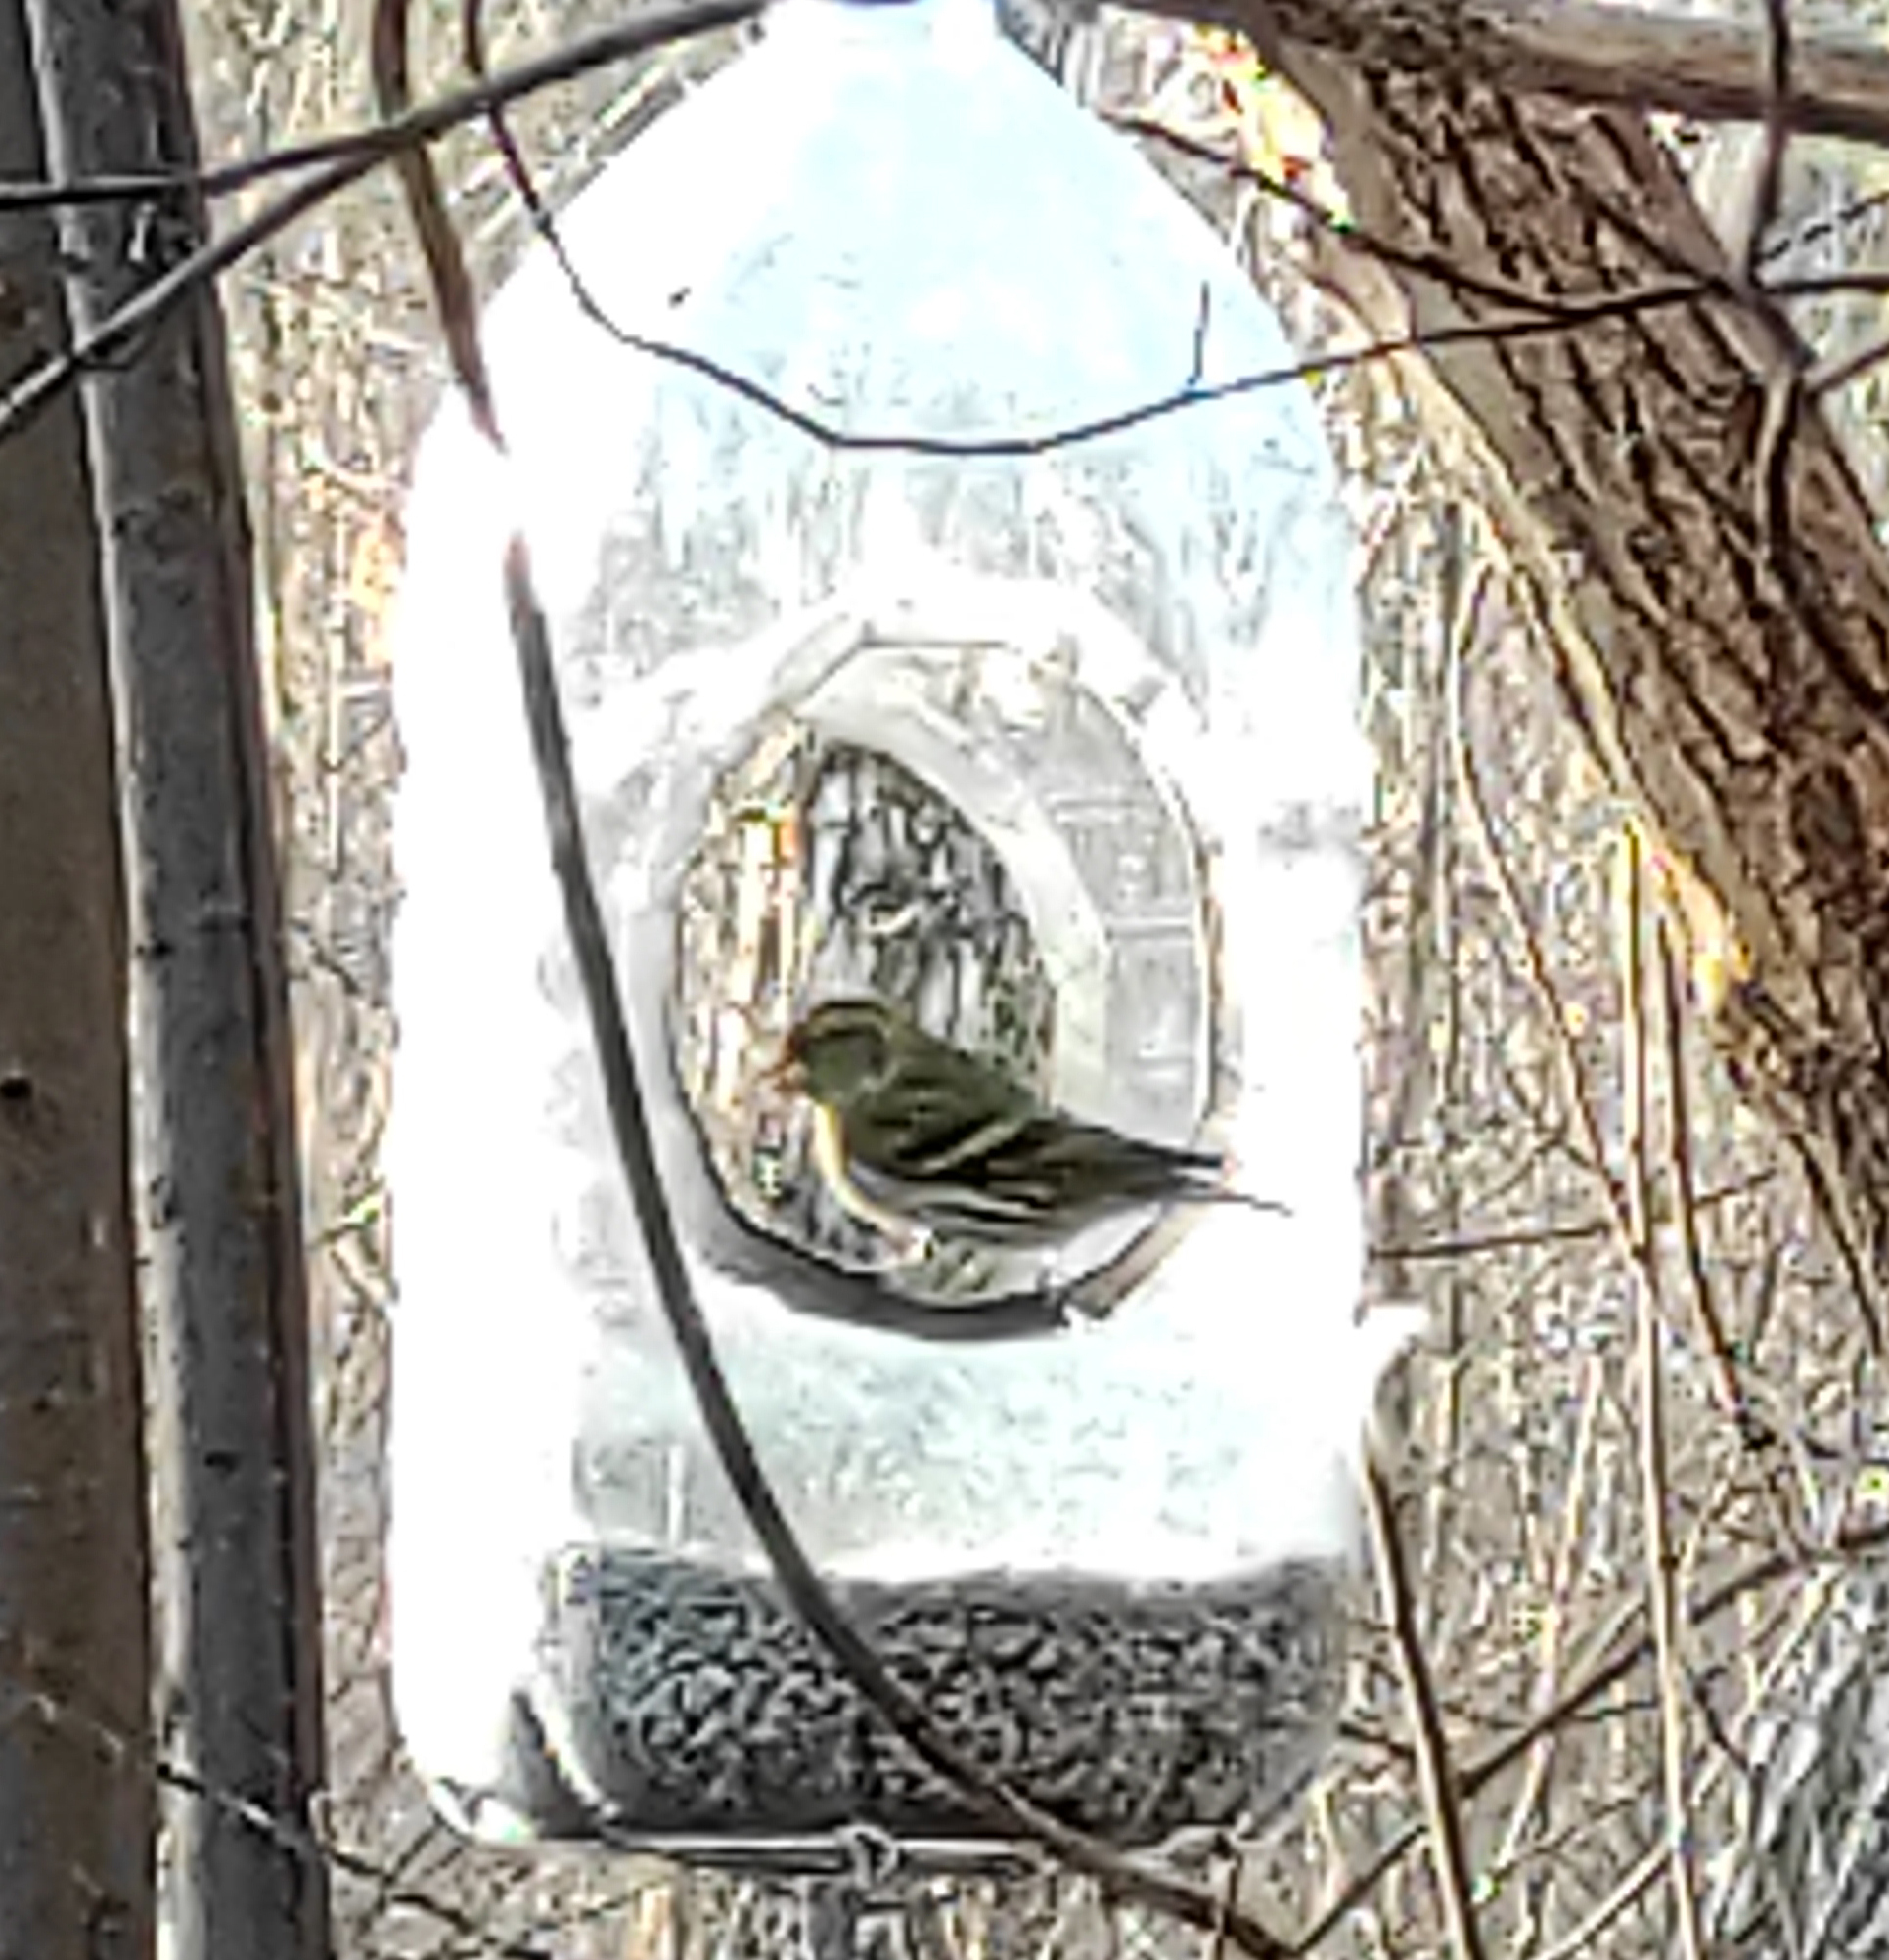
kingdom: Animalia
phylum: Chordata
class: Aves
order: Passeriformes
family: Fringillidae
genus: Spinus
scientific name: Spinus spinus
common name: Eurasian siskin
